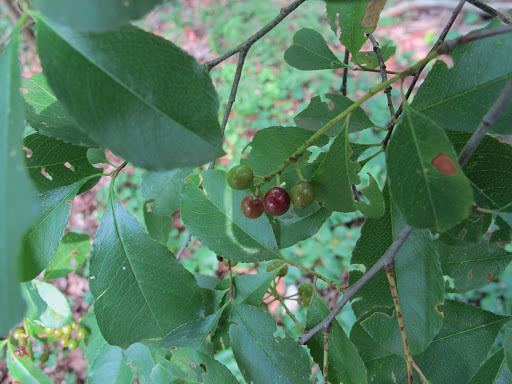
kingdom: Plantae
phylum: Tracheophyta
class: Magnoliopsida
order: Rosales
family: Rosaceae
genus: Prunus
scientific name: Prunus serotina
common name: Black cherry
